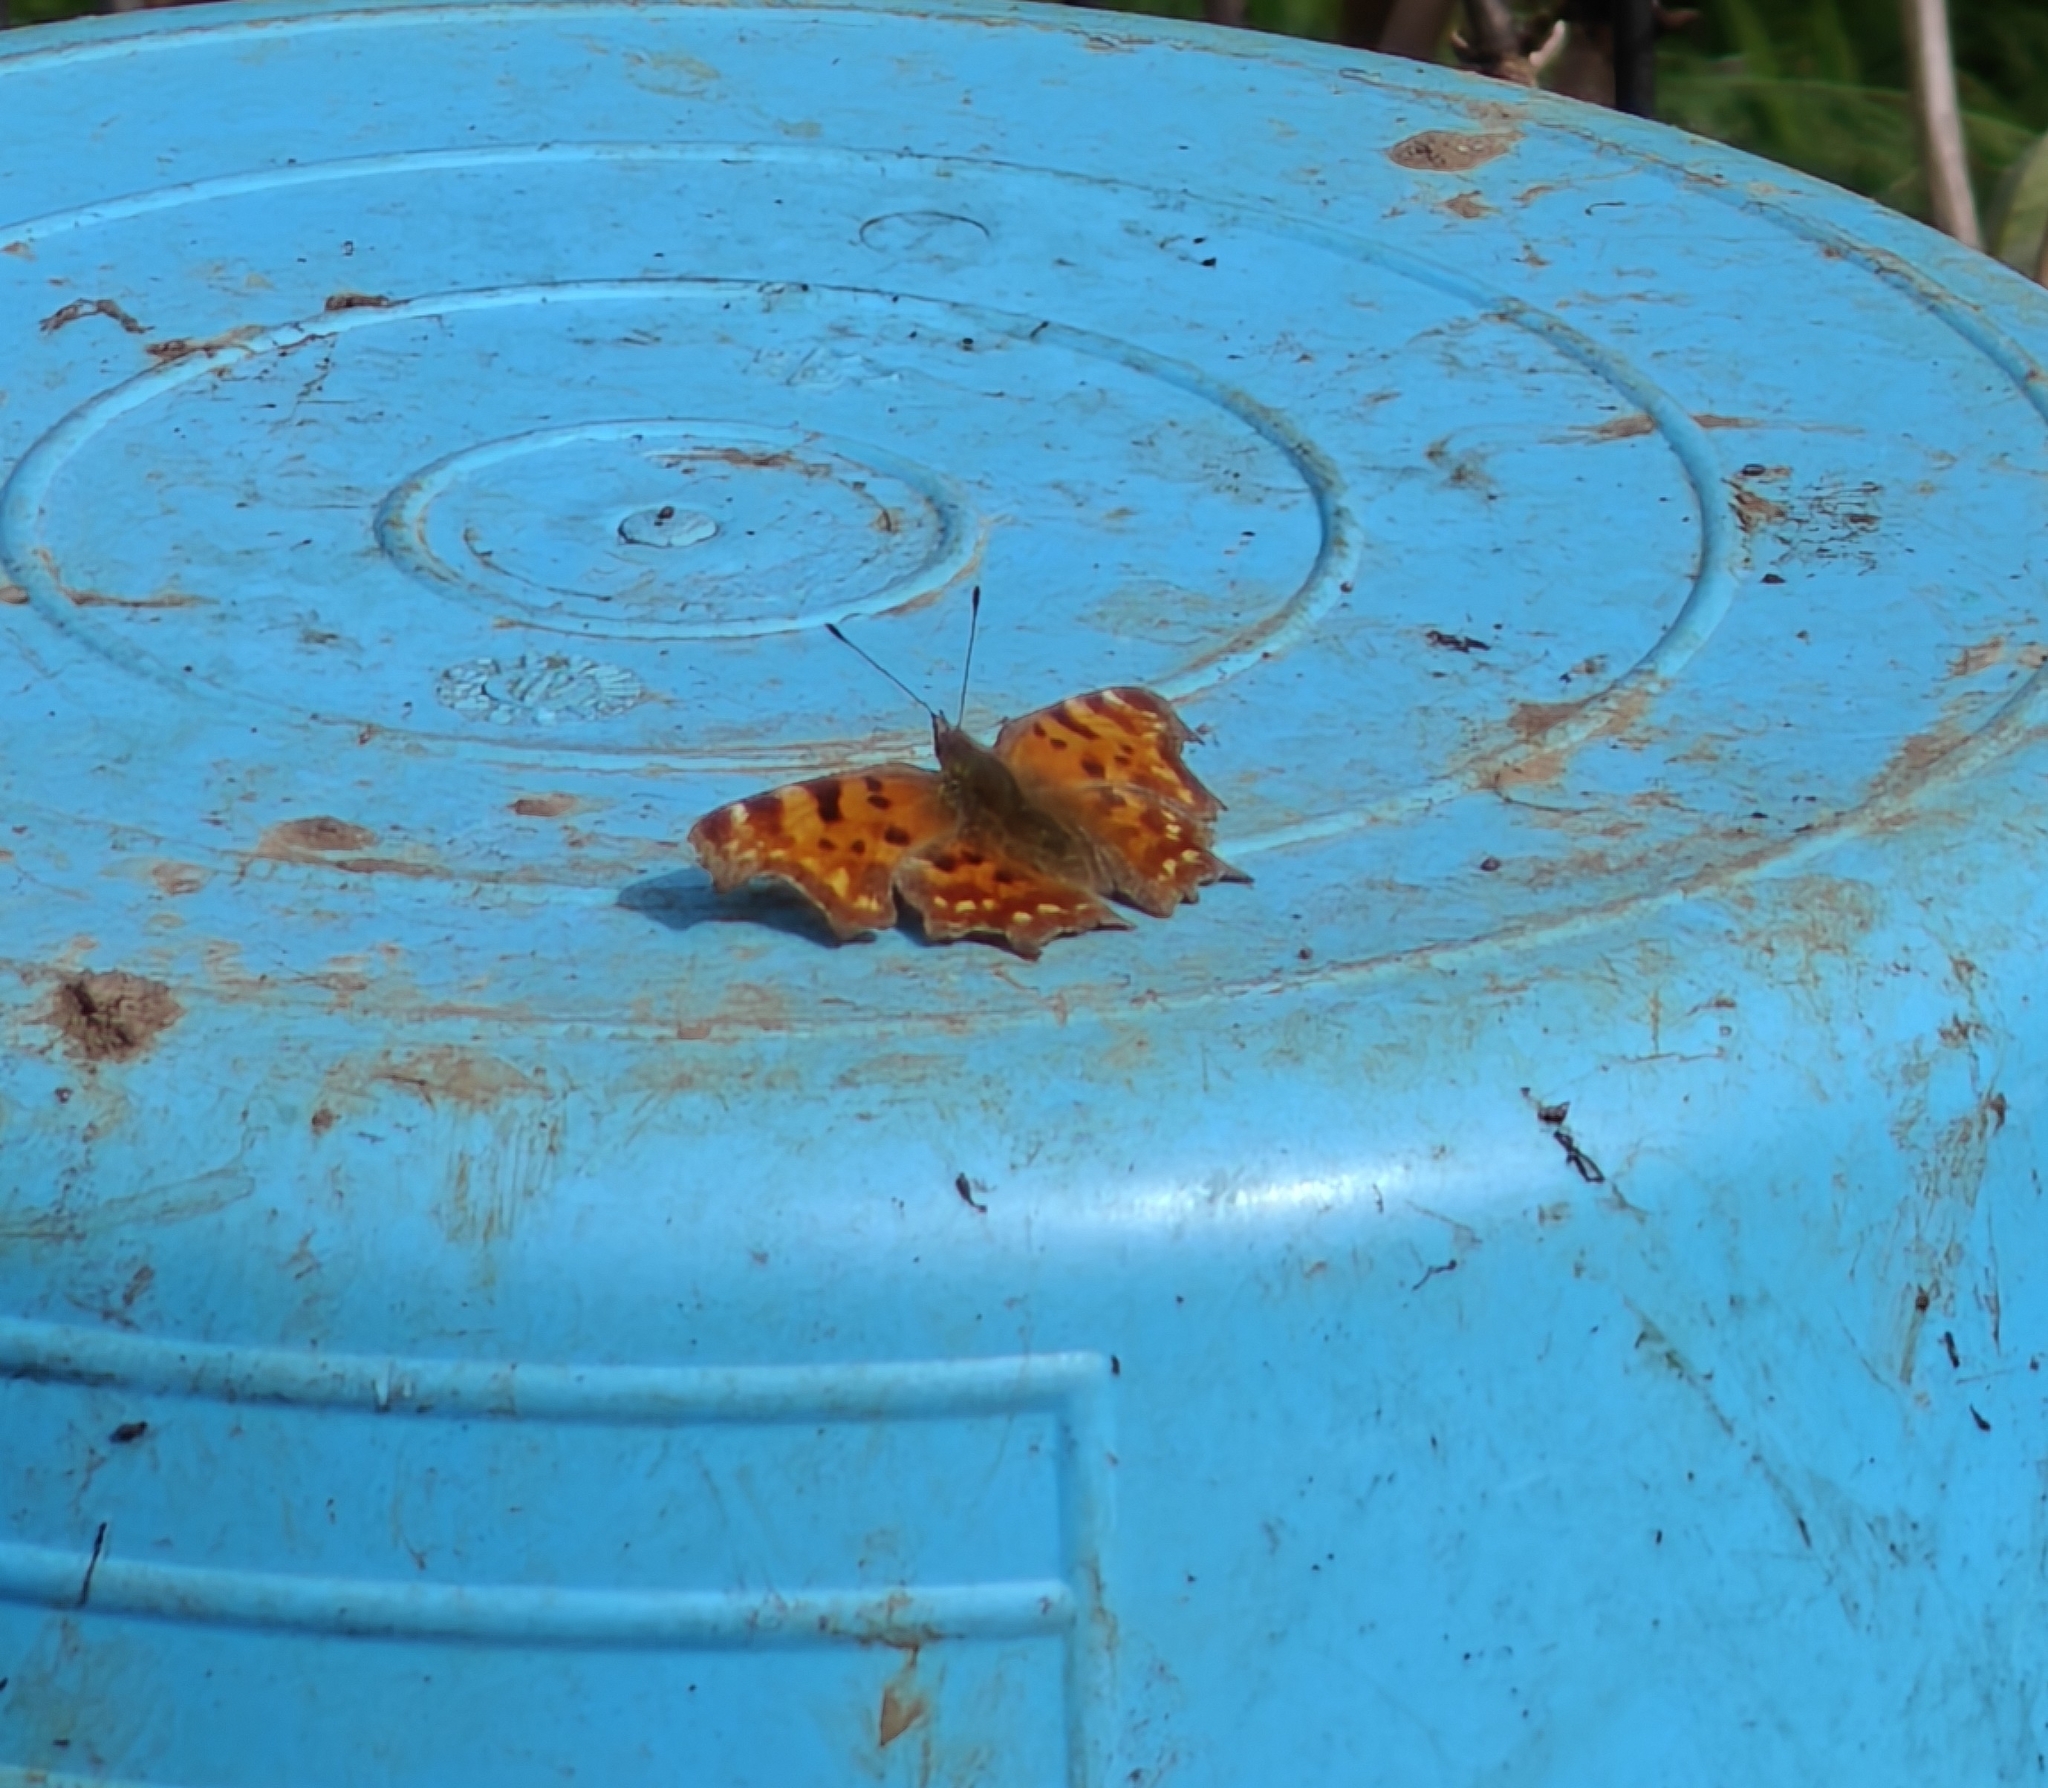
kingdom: Animalia
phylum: Arthropoda
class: Insecta
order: Lepidoptera
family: Nymphalidae
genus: Polygonia
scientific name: Polygonia c-album
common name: Comma
